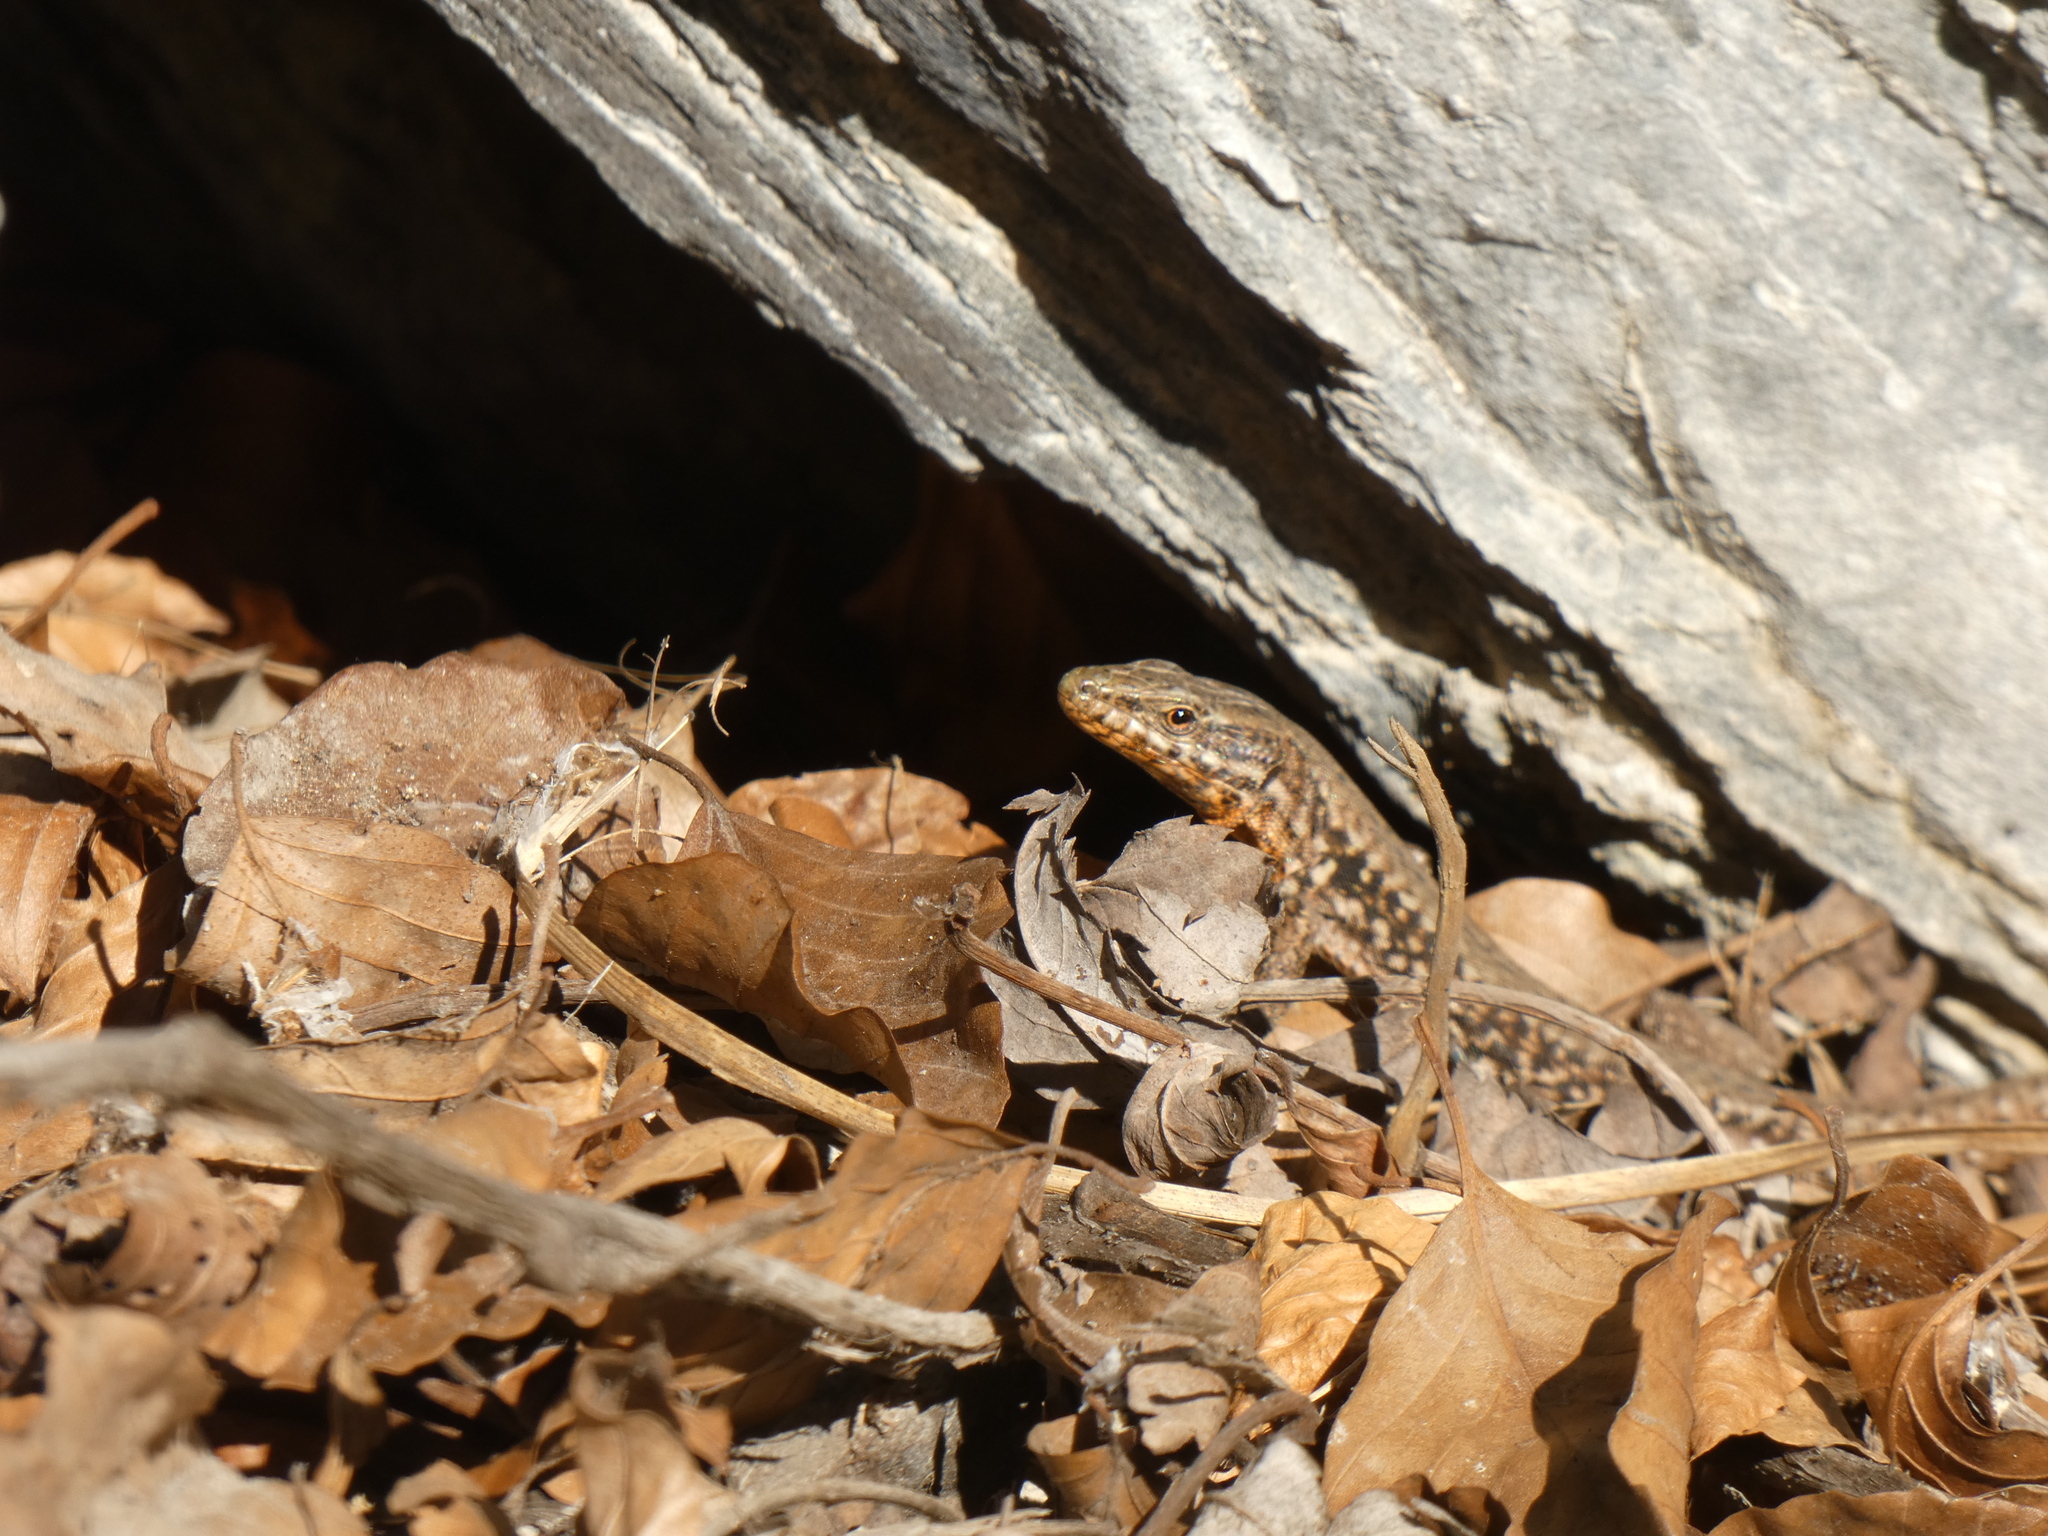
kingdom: Animalia
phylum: Chordata
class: Squamata
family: Lacertidae
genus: Podarcis
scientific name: Podarcis muralis
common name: Common wall lizard
